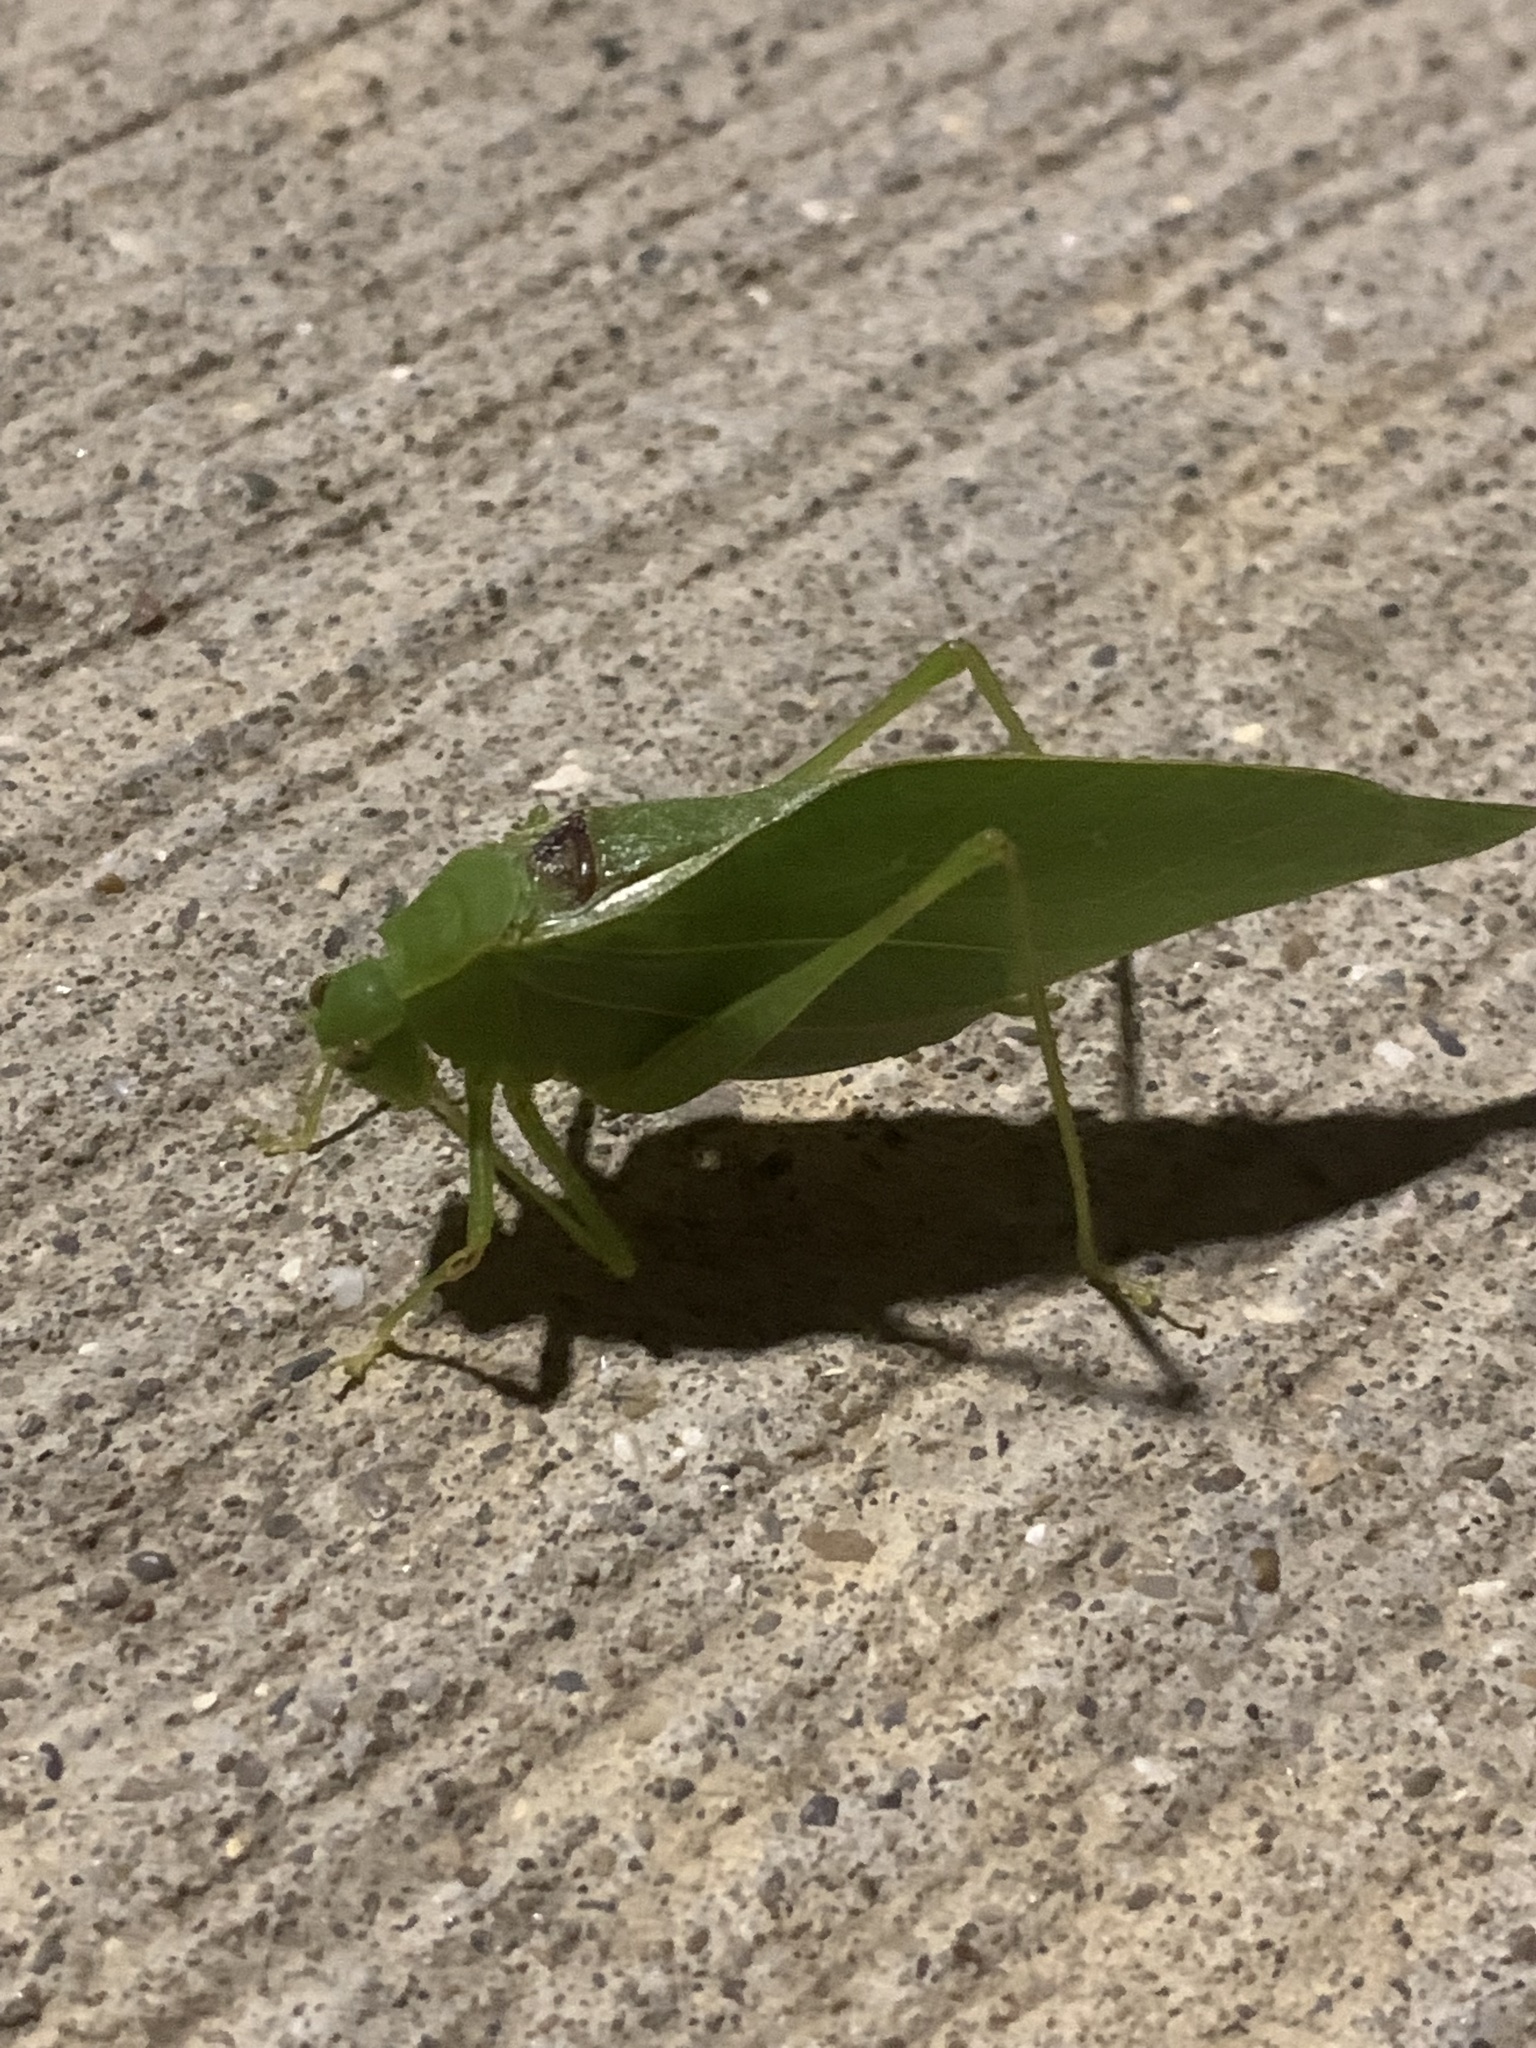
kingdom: Animalia
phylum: Arthropoda
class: Insecta
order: Orthoptera
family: Tettigoniidae
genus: Microcentrum
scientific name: Microcentrum retinerve
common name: Angular-winged katydid
